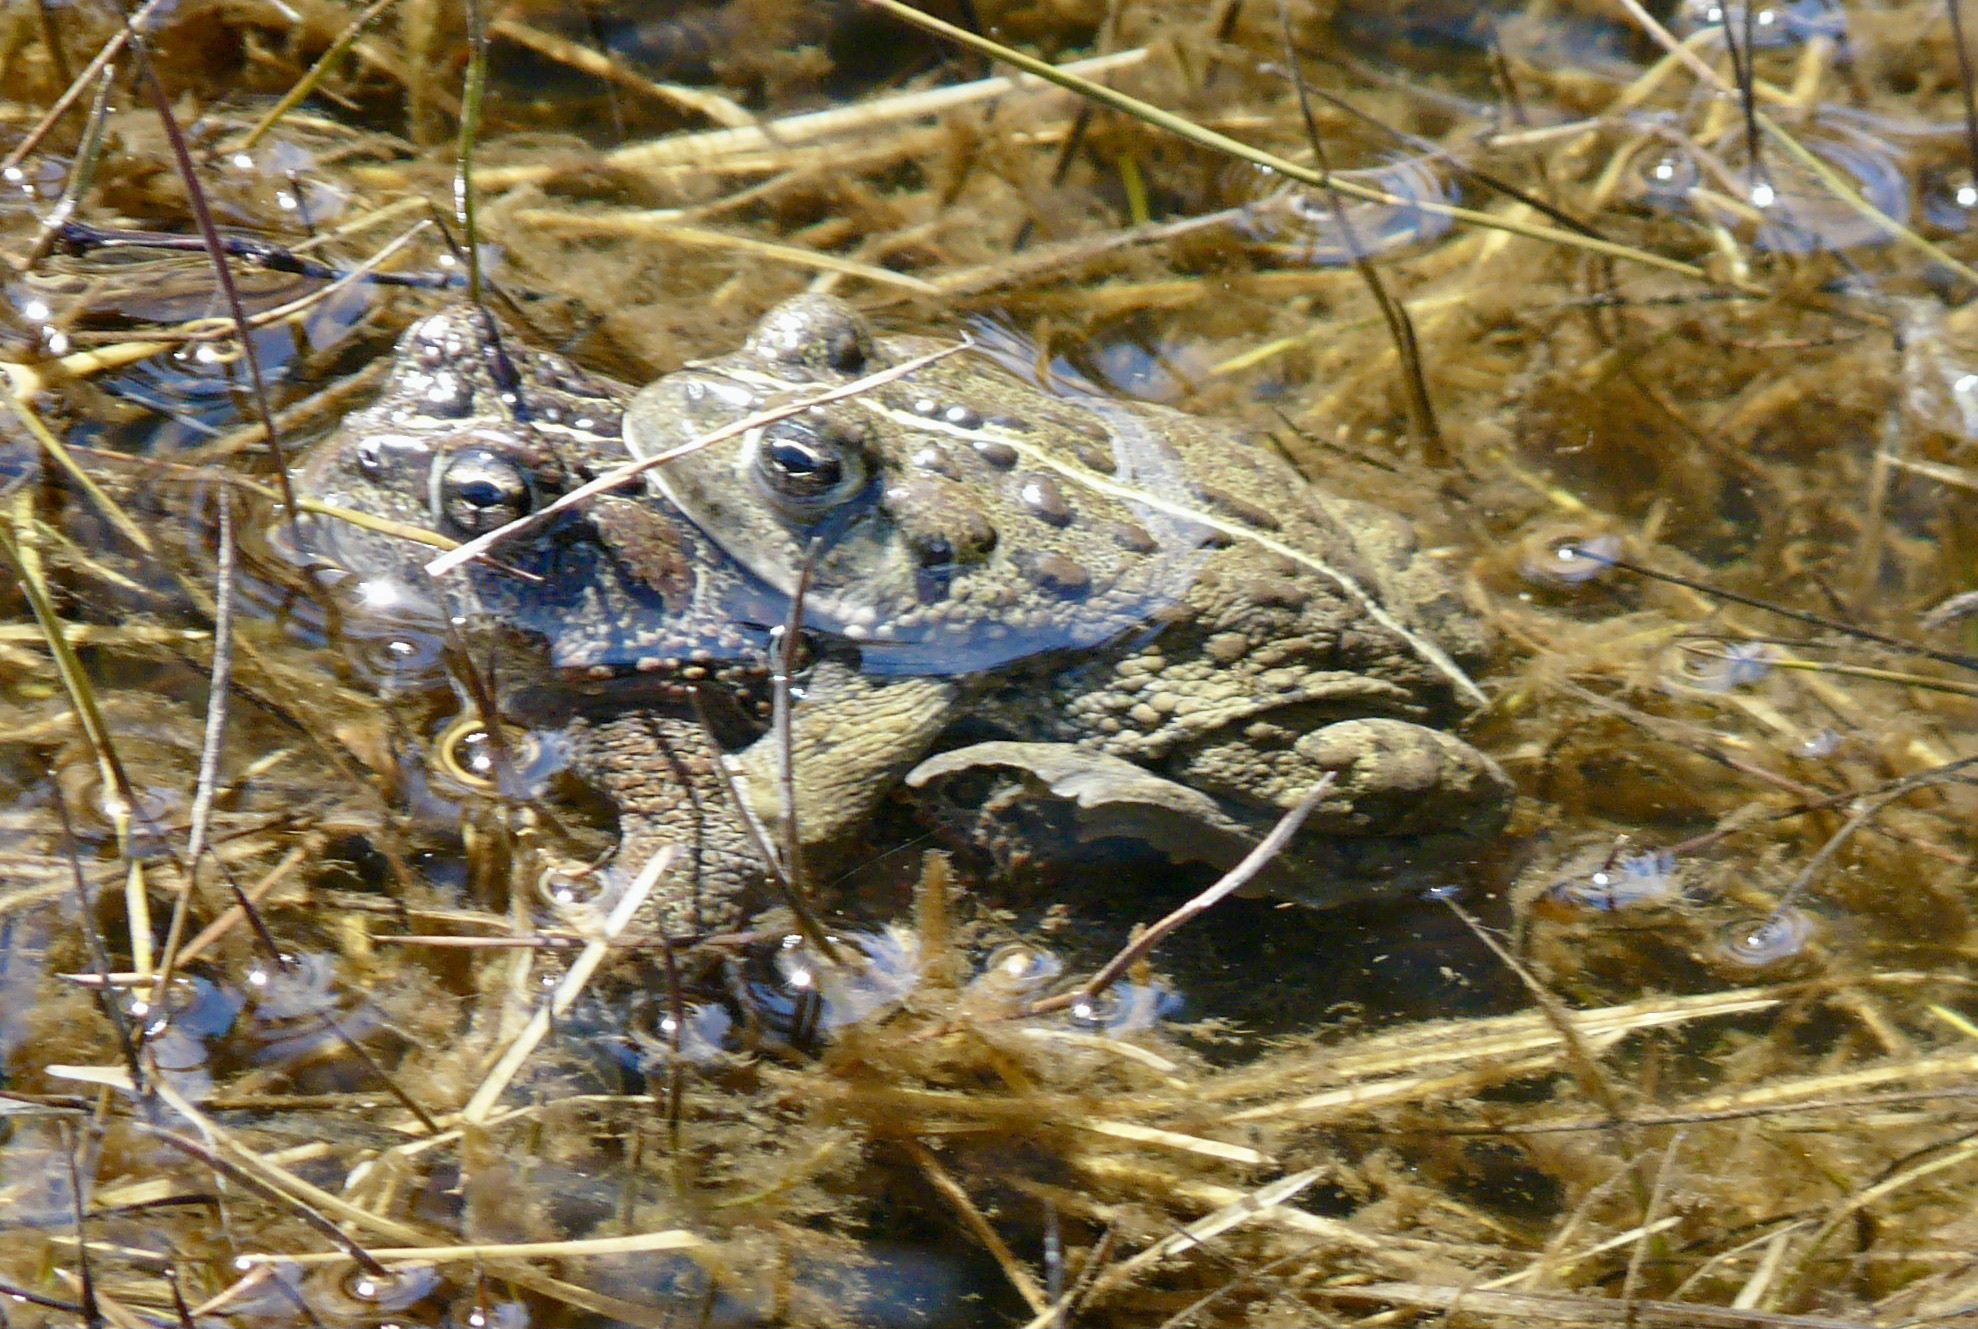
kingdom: Animalia
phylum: Chordata
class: Amphibia
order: Anura
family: Bufonidae
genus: Anaxyrus
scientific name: Anaxyrus boreas
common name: Western toad
